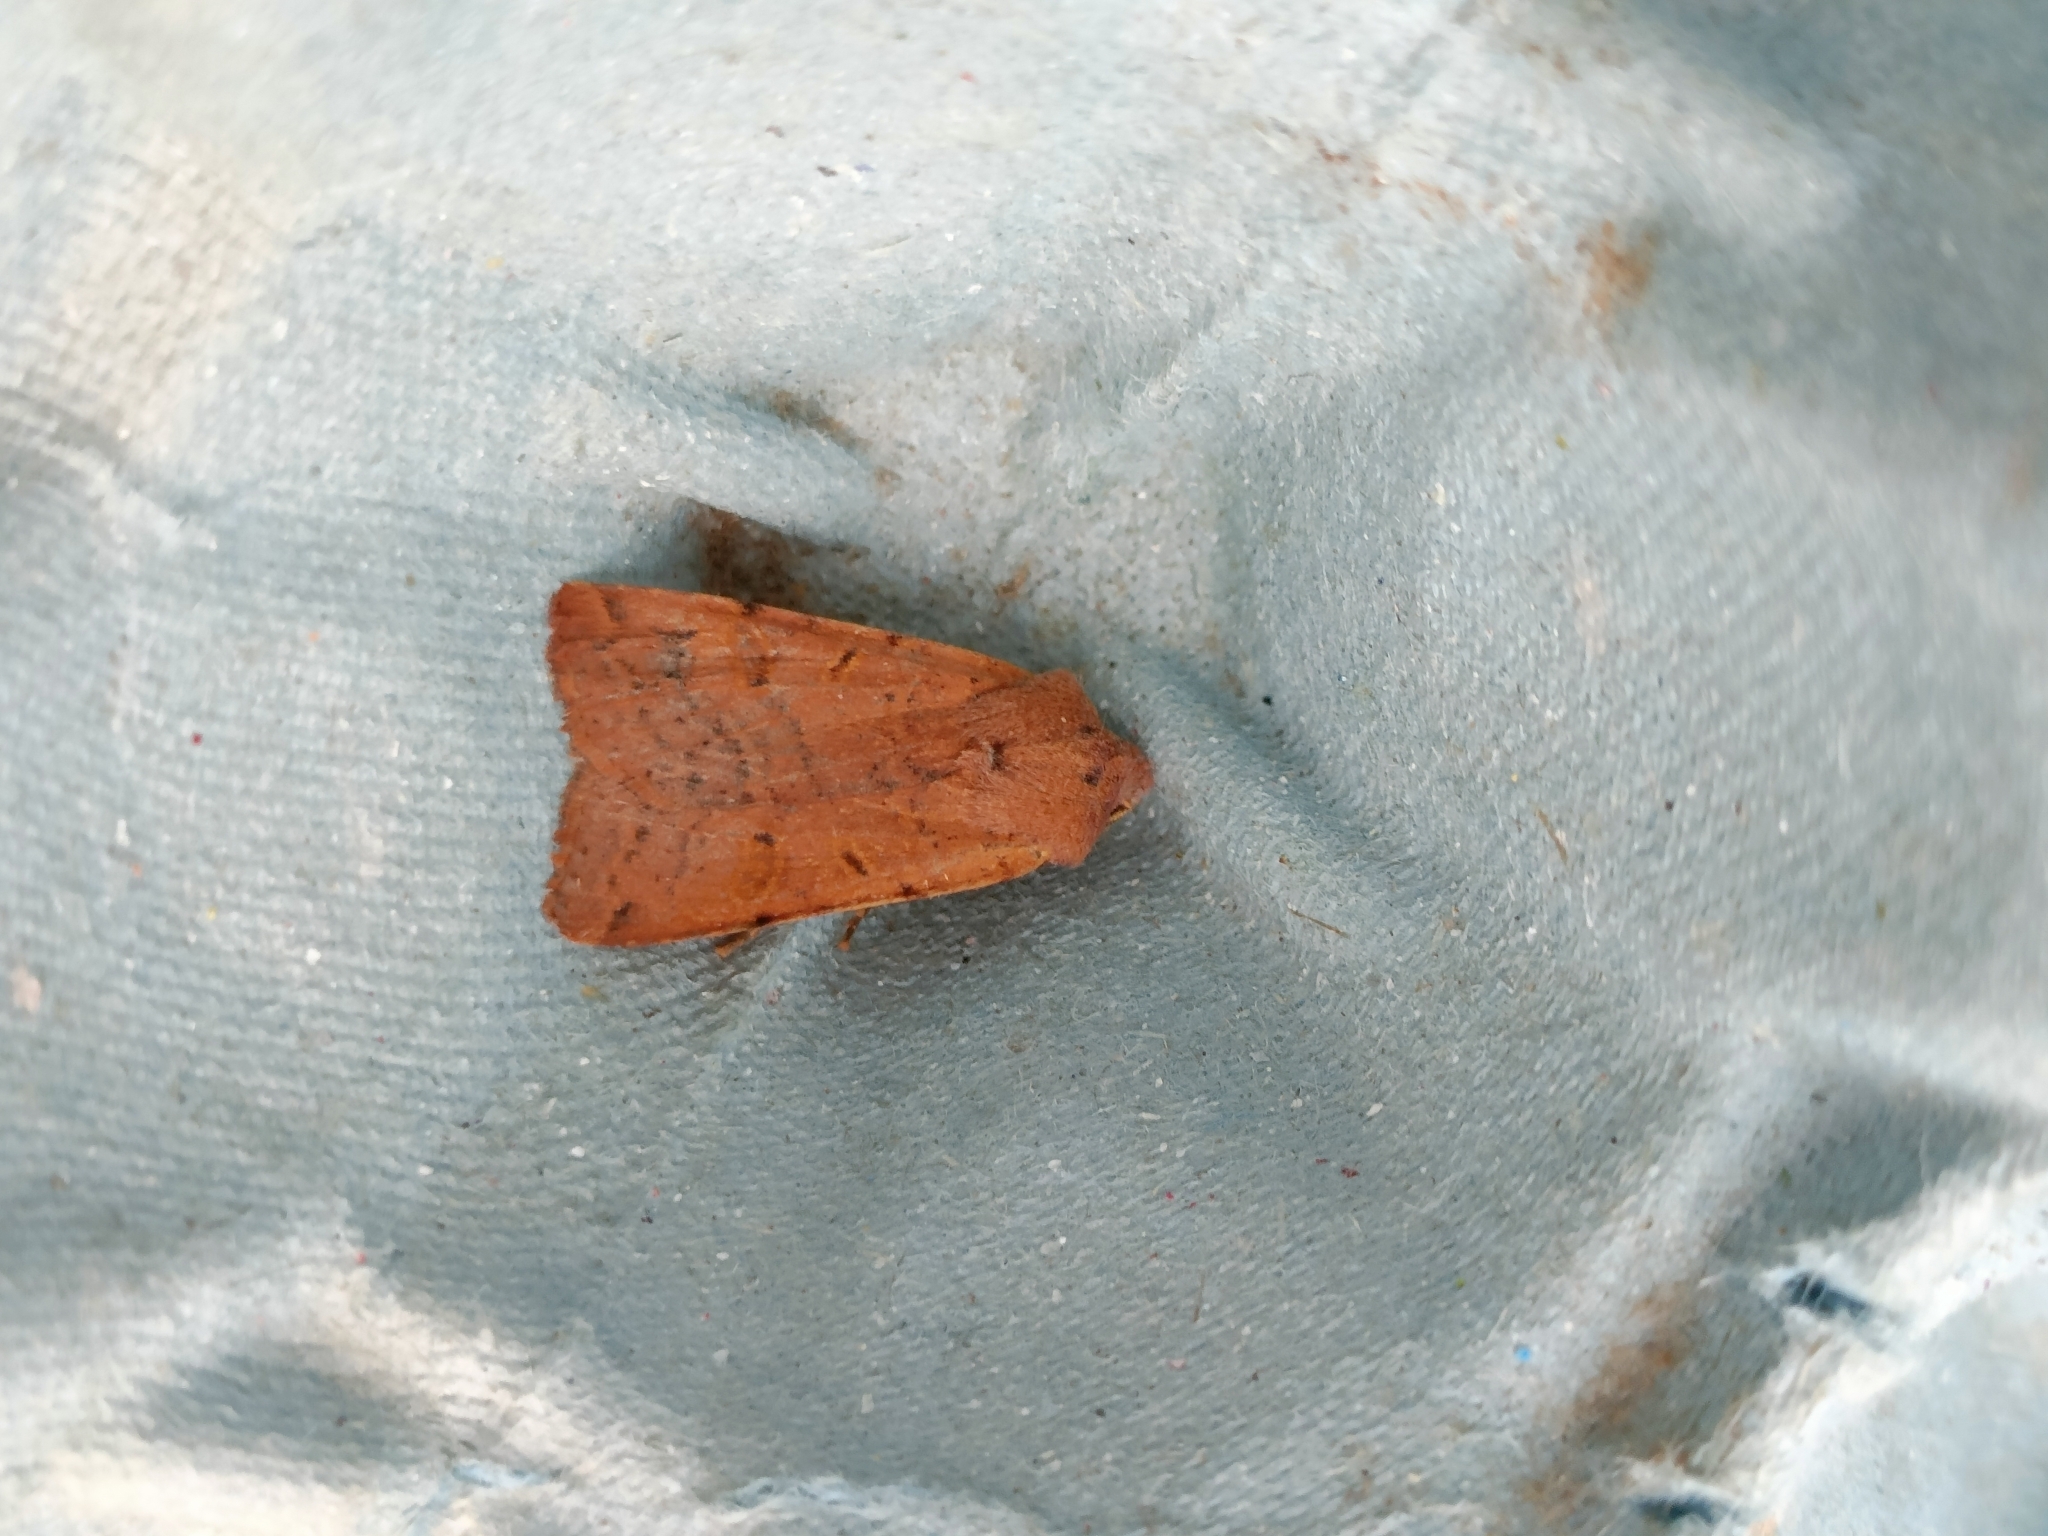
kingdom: Animalia
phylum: Arthropoda
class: Insecta
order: Lepidoptera
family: Noctuidae
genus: Agrochola
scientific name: Agrochola lychnidis
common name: Beaded chestnut
